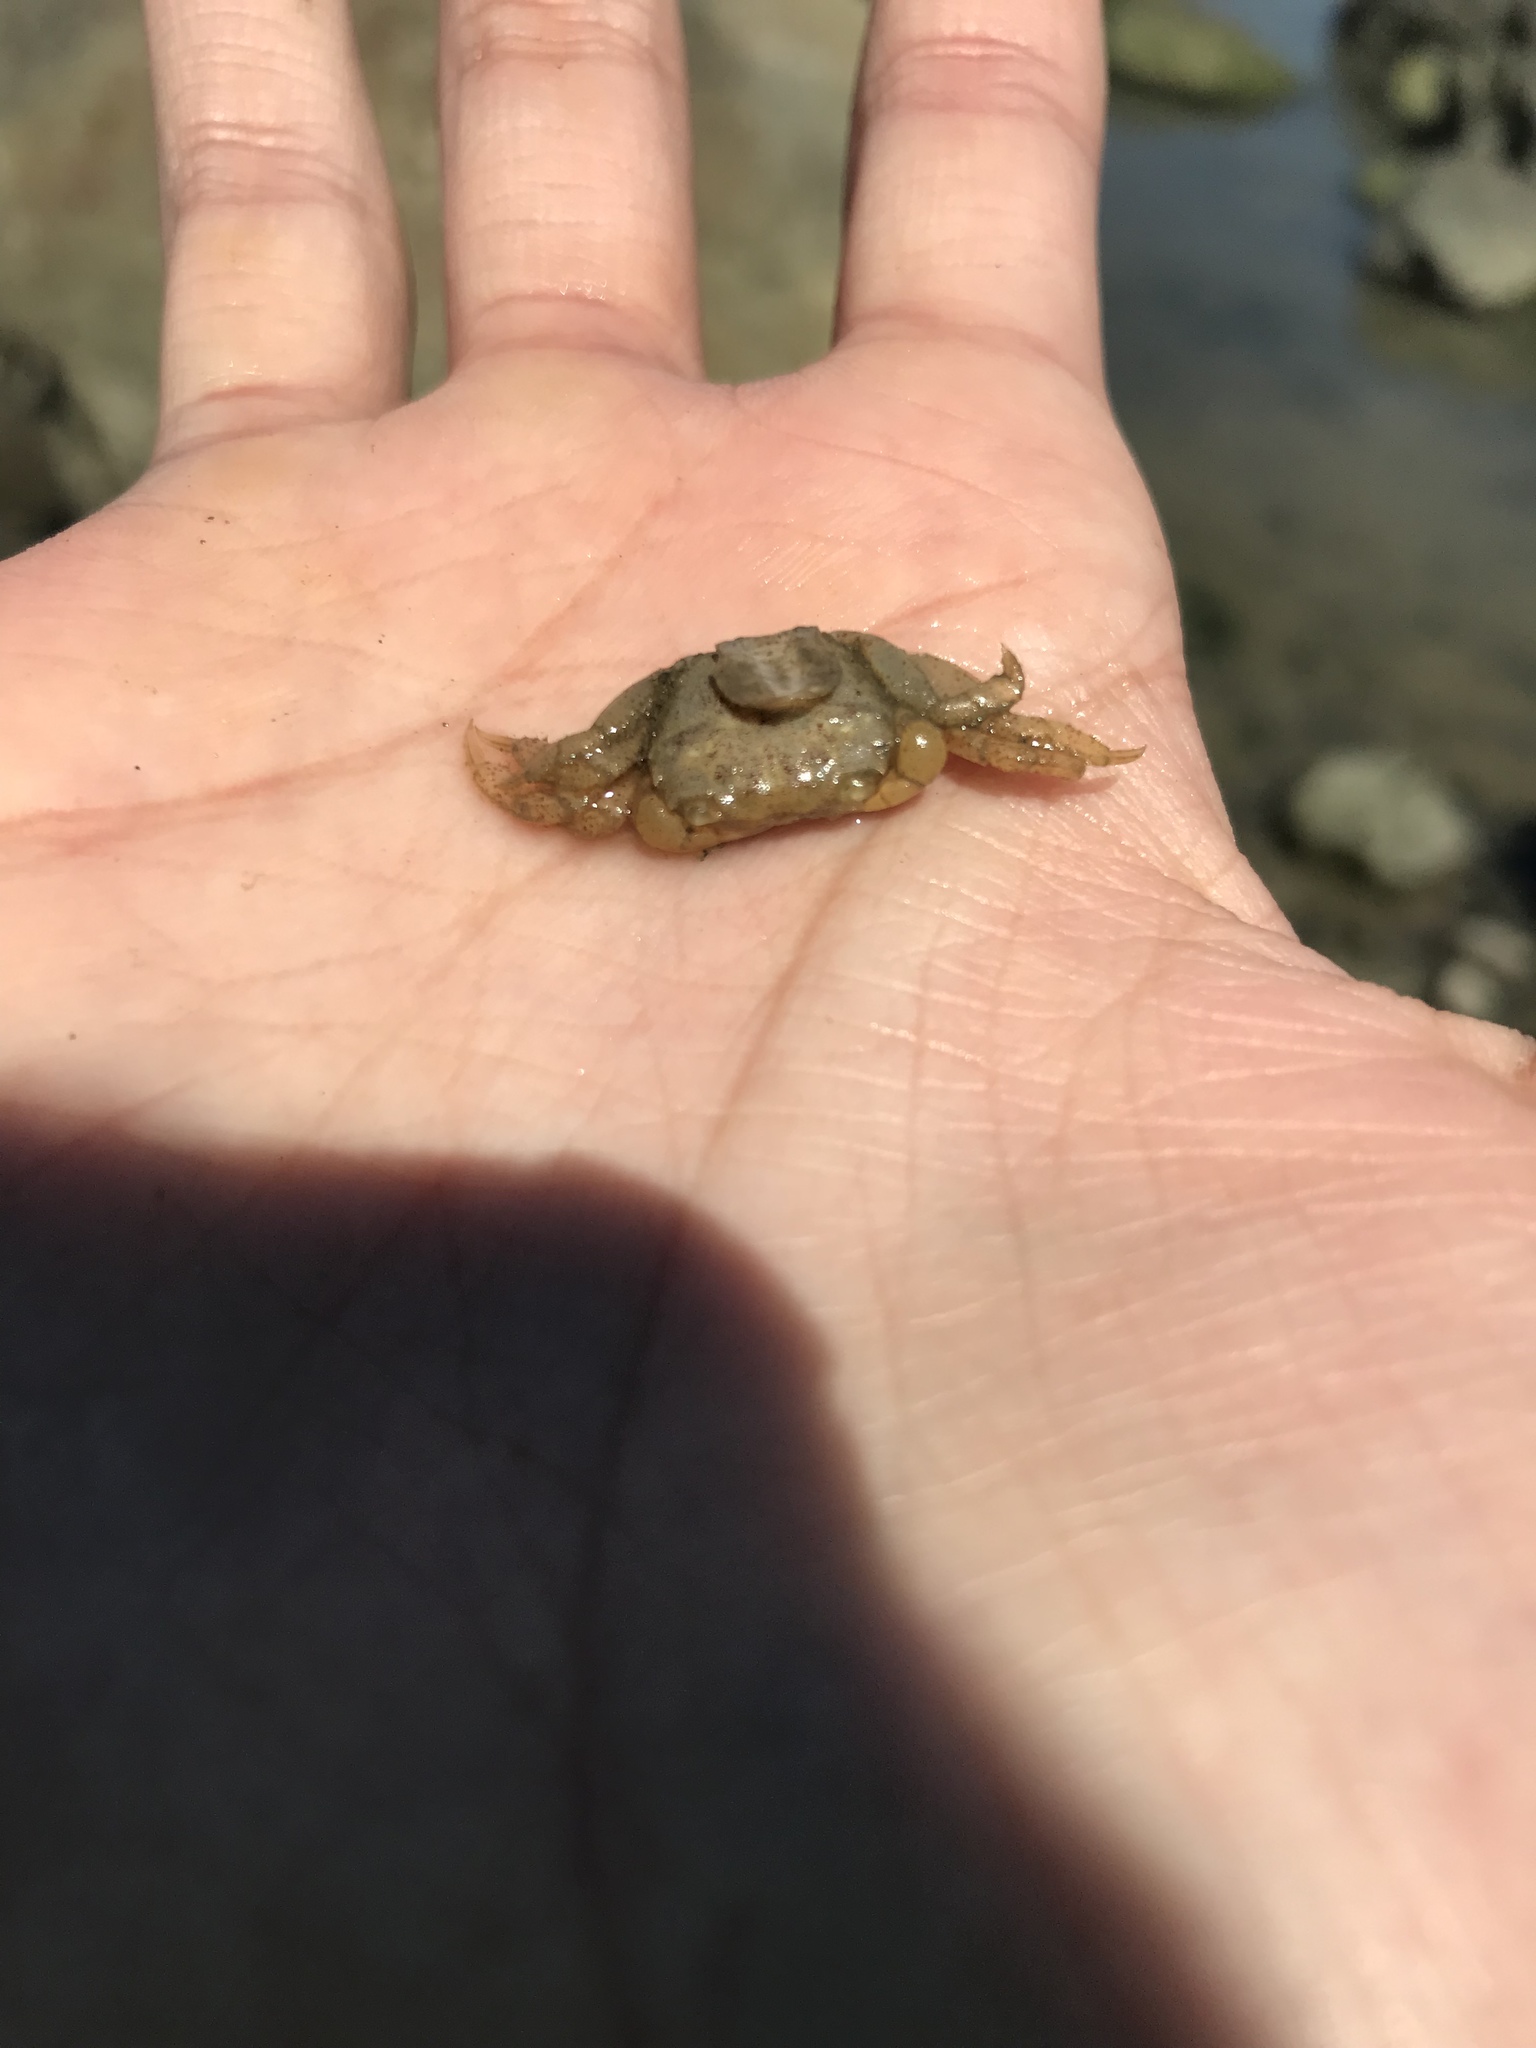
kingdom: Animalia
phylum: Arthropoda
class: Malacostraca
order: Decapoda
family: Varunidae
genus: Hemigrapsus
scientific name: Hemigrapsus oregonensis
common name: Yellow shore crab
